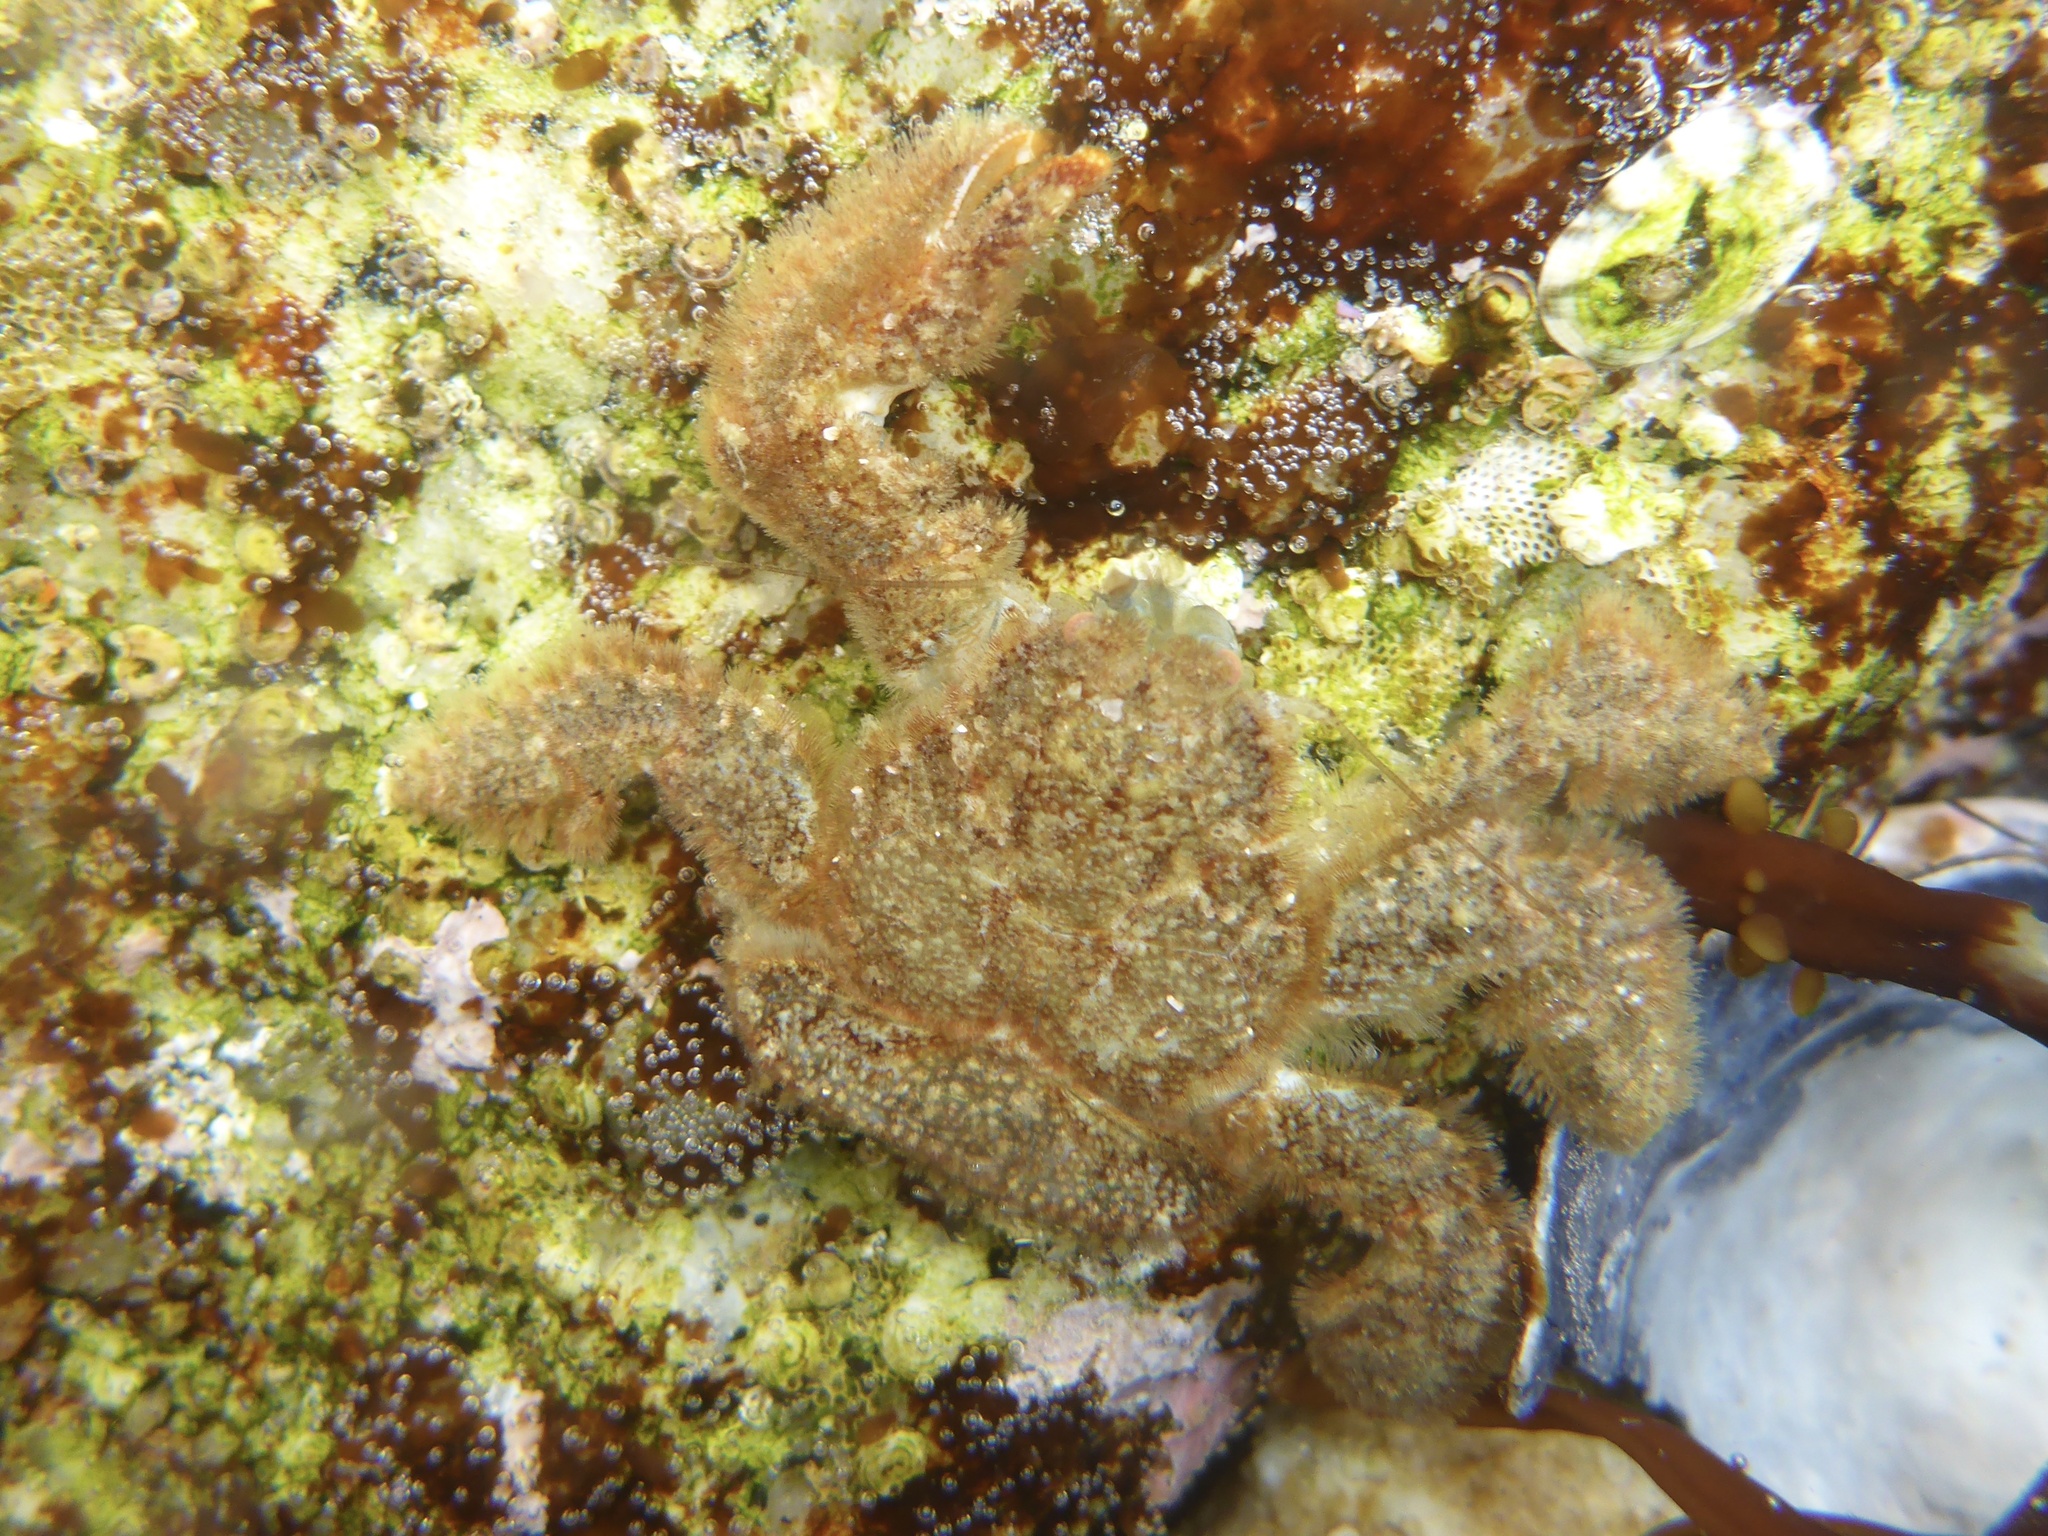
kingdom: Animalia
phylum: Arthropoda
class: Malacostraca
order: Decapoda
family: Hapalogastridae
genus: Hapalogaster
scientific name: Hapalogaster cavicauda
